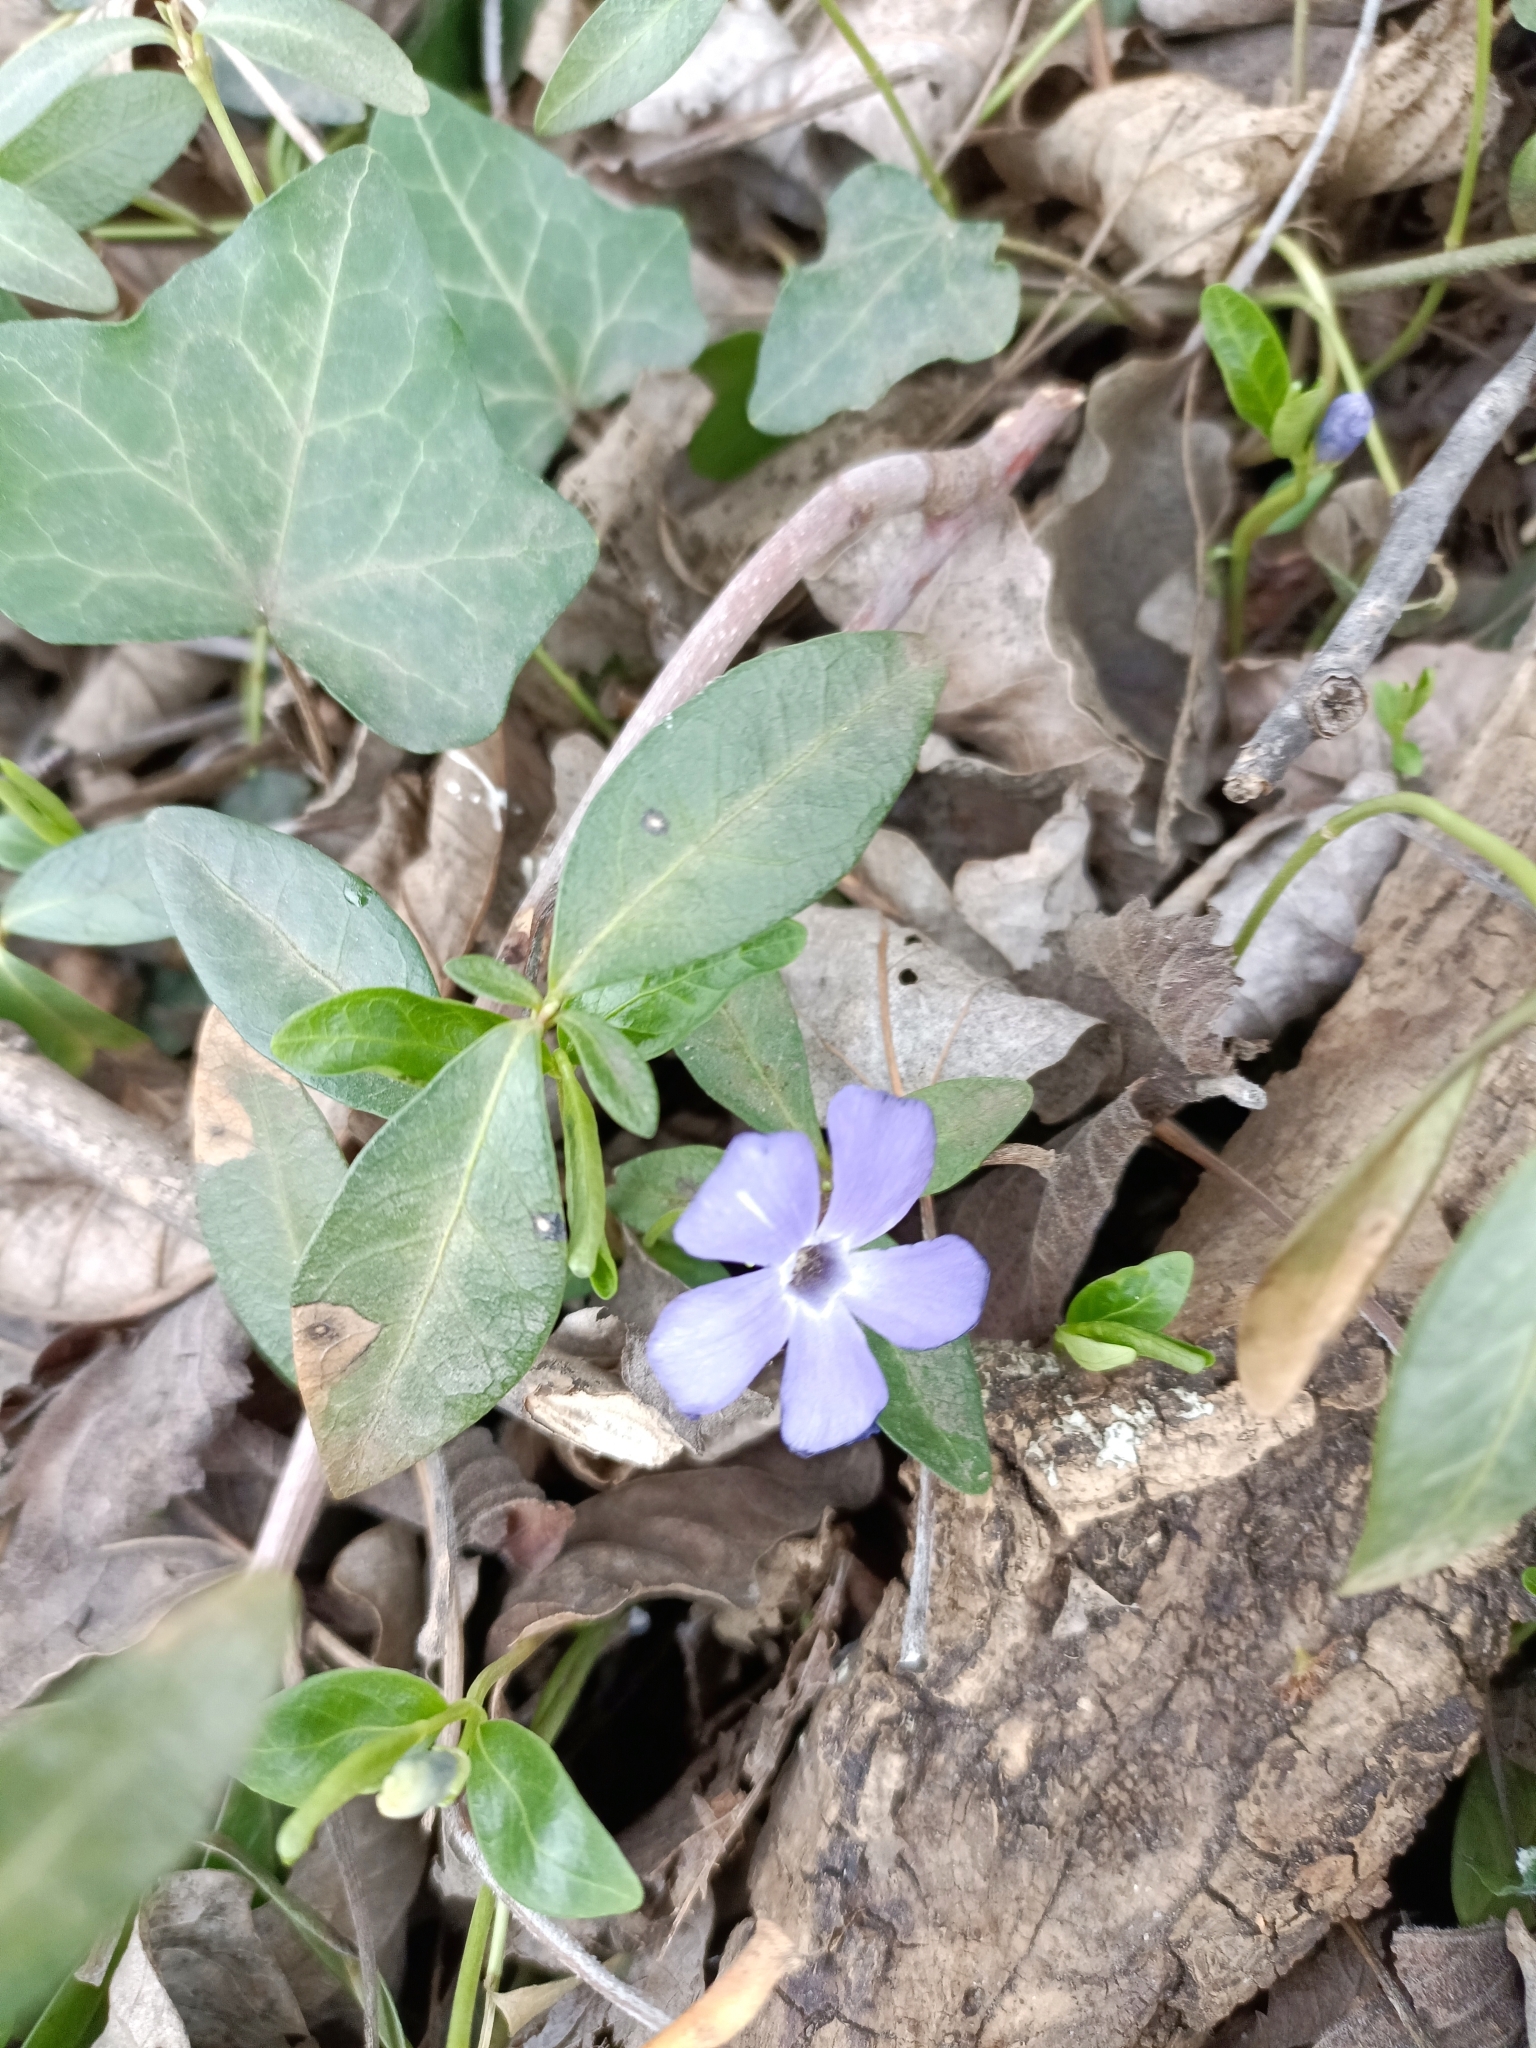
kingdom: Plantae
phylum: Tracheophyta
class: Magnoliopsida
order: Gentianales
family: Apocynaceae
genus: Vinca
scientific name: Vinca minor
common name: Lesser periwinkle
